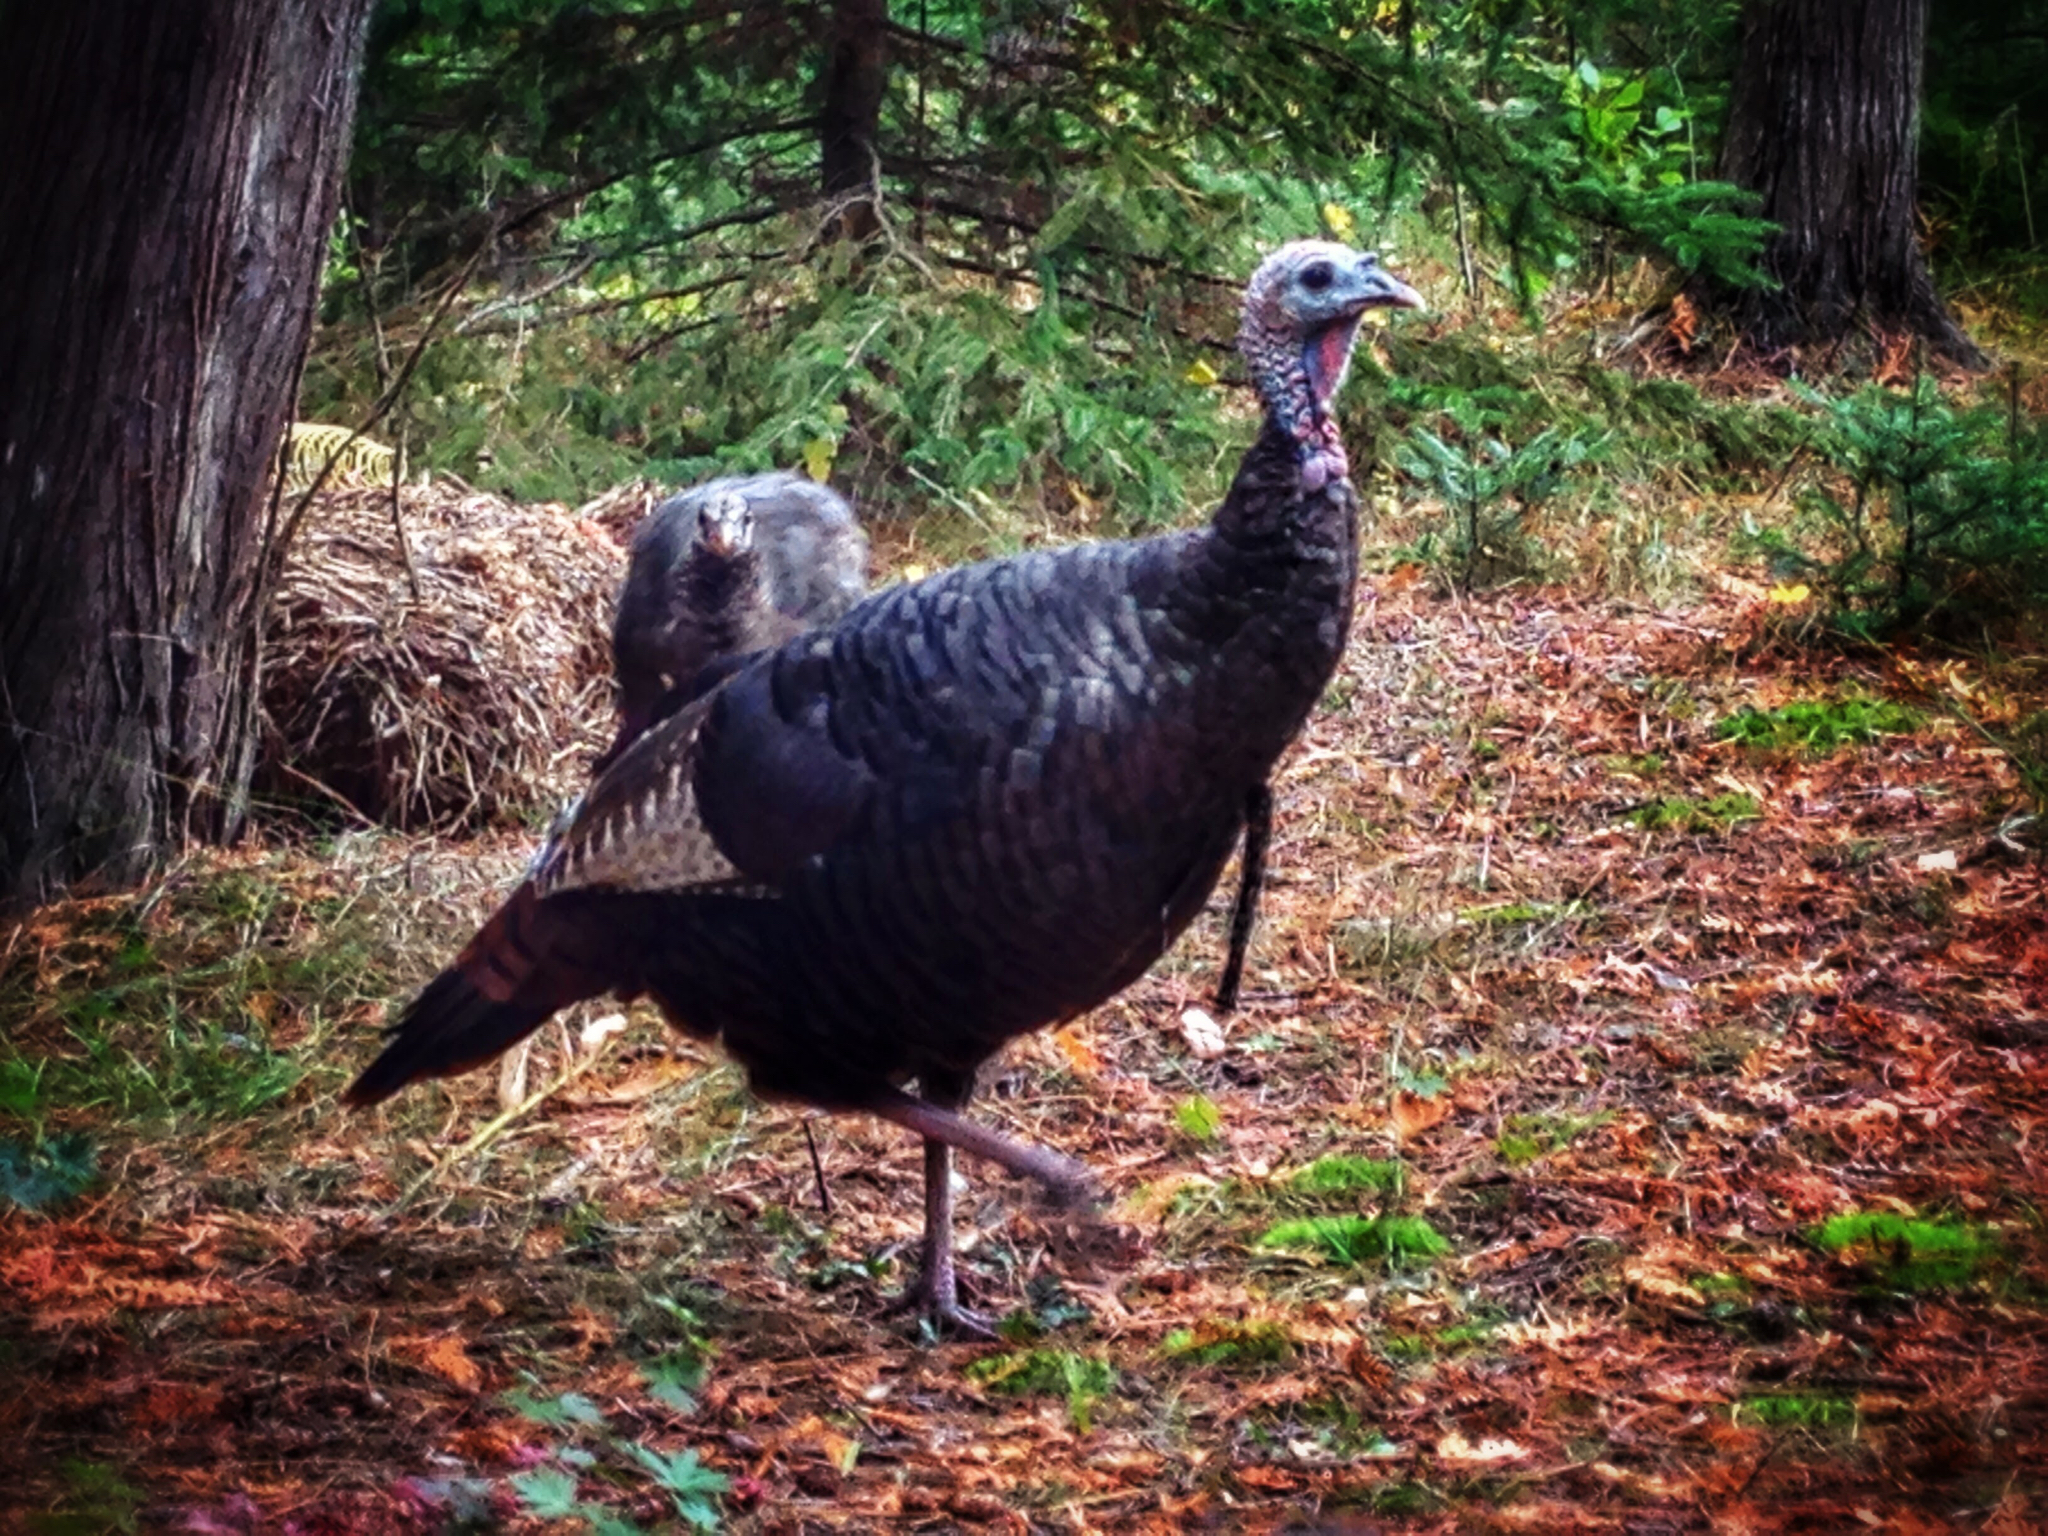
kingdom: Animalia
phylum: Chordata
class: Aves
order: Galliformes
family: Phasianidae
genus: Meleagris
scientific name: Meleagris gallopavo
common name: Wild turkey
